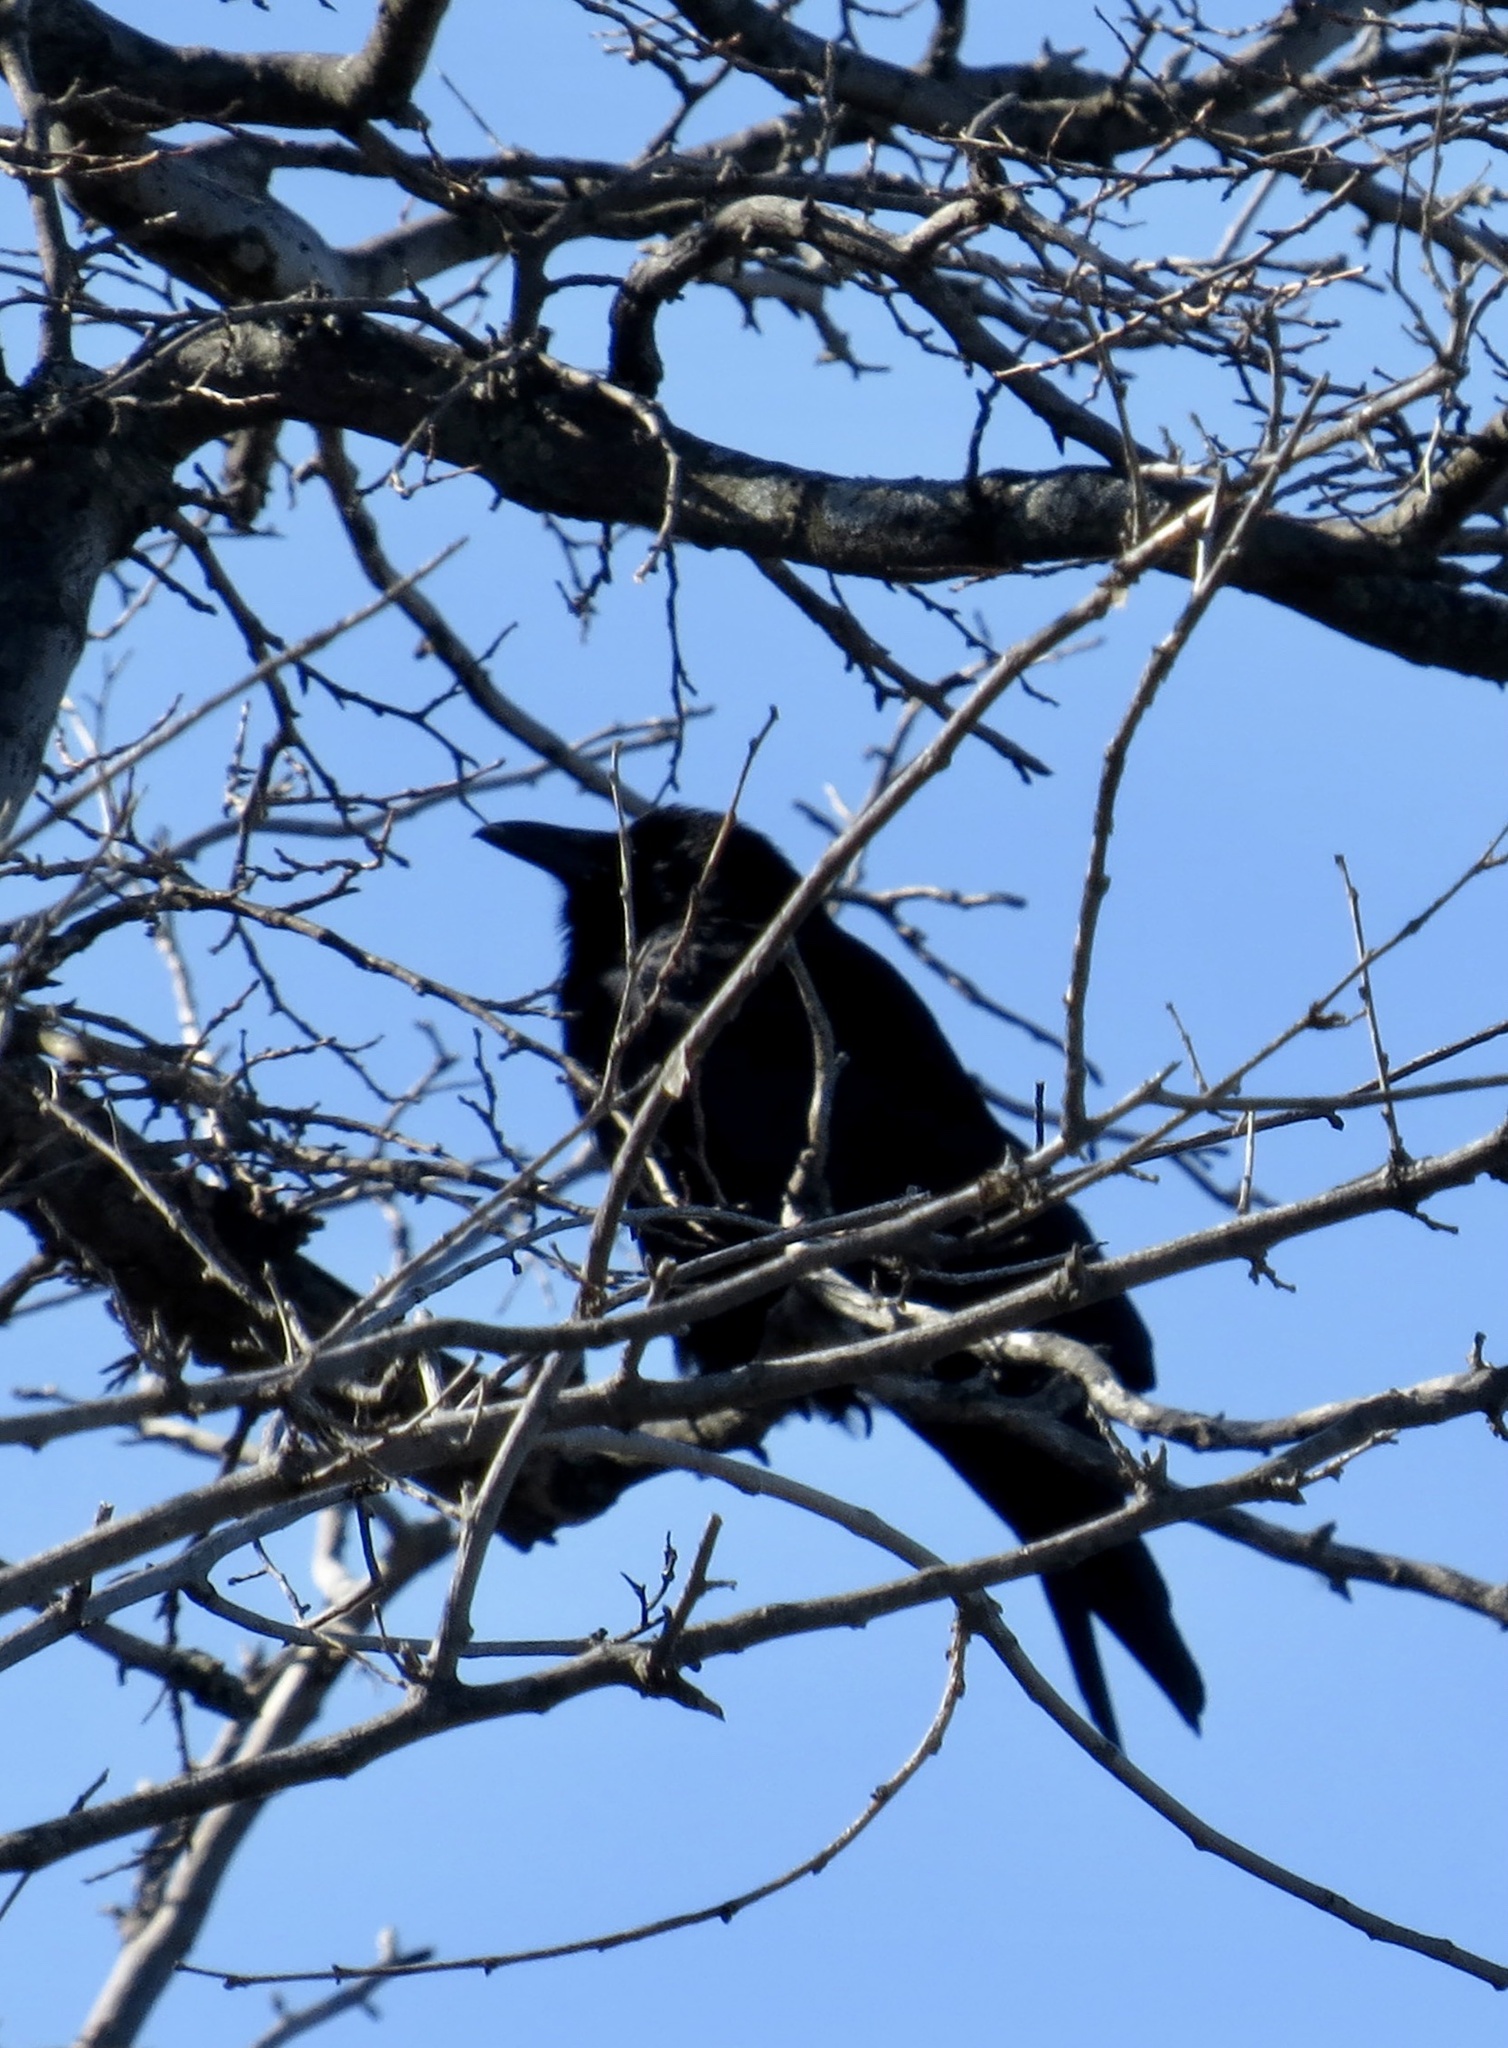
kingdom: Animalia
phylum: Chordata
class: Aves
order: Passeriformes
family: Corvidae
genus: Corvus
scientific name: Corvus ossifragus
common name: Fish crow
